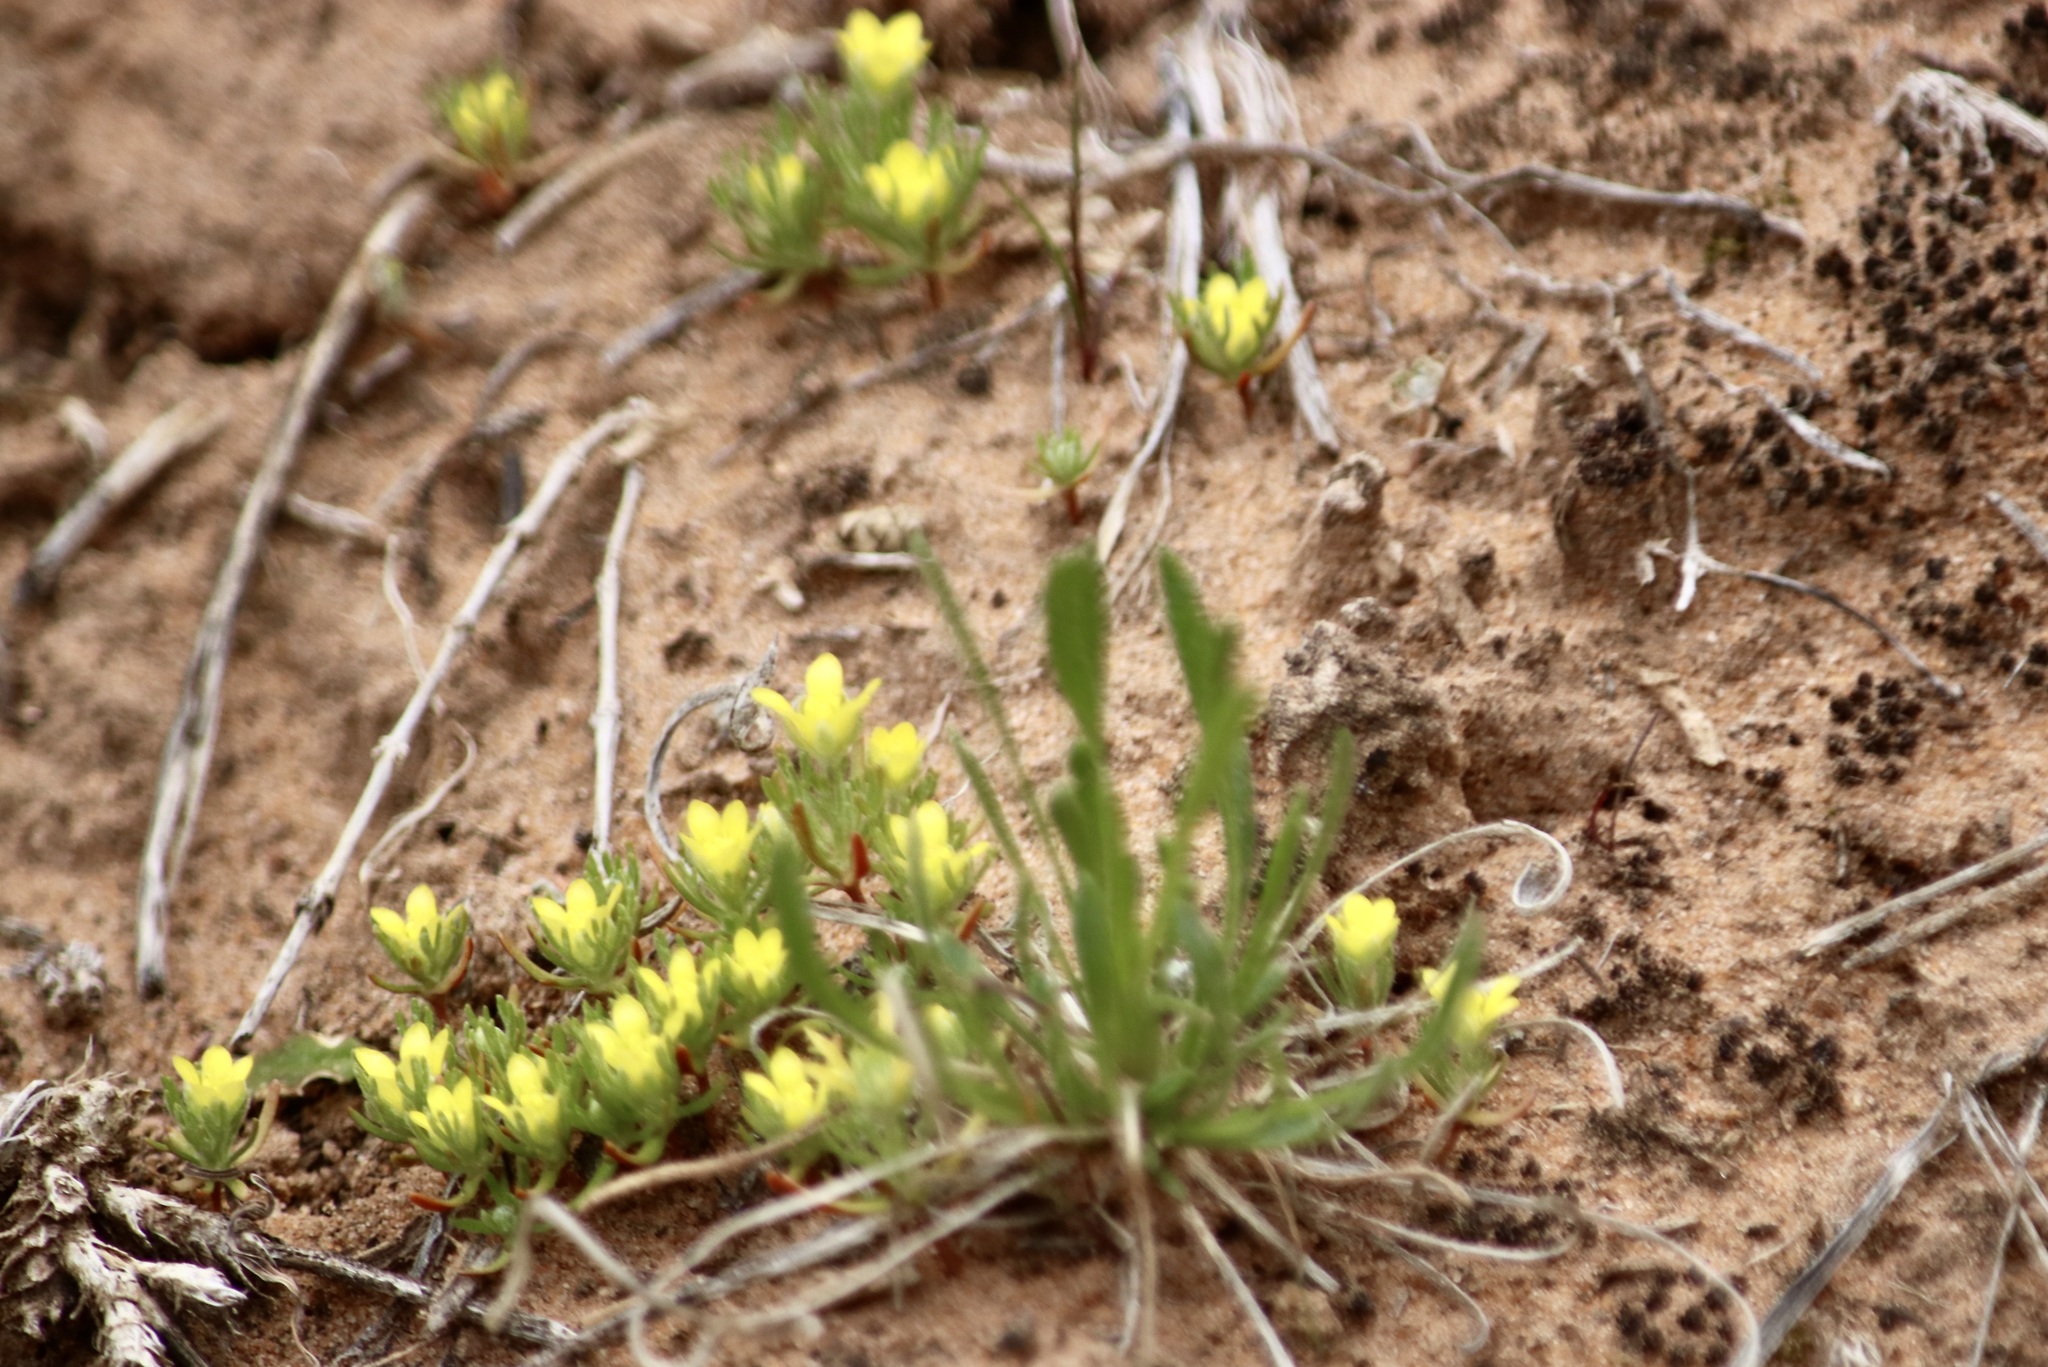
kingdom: Plantae
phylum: Tracheophyta
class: Magnoliopsida
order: Ranunculales
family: Ranunculaceae
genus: Ceratocephala
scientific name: Ceratocephala orthoceras
